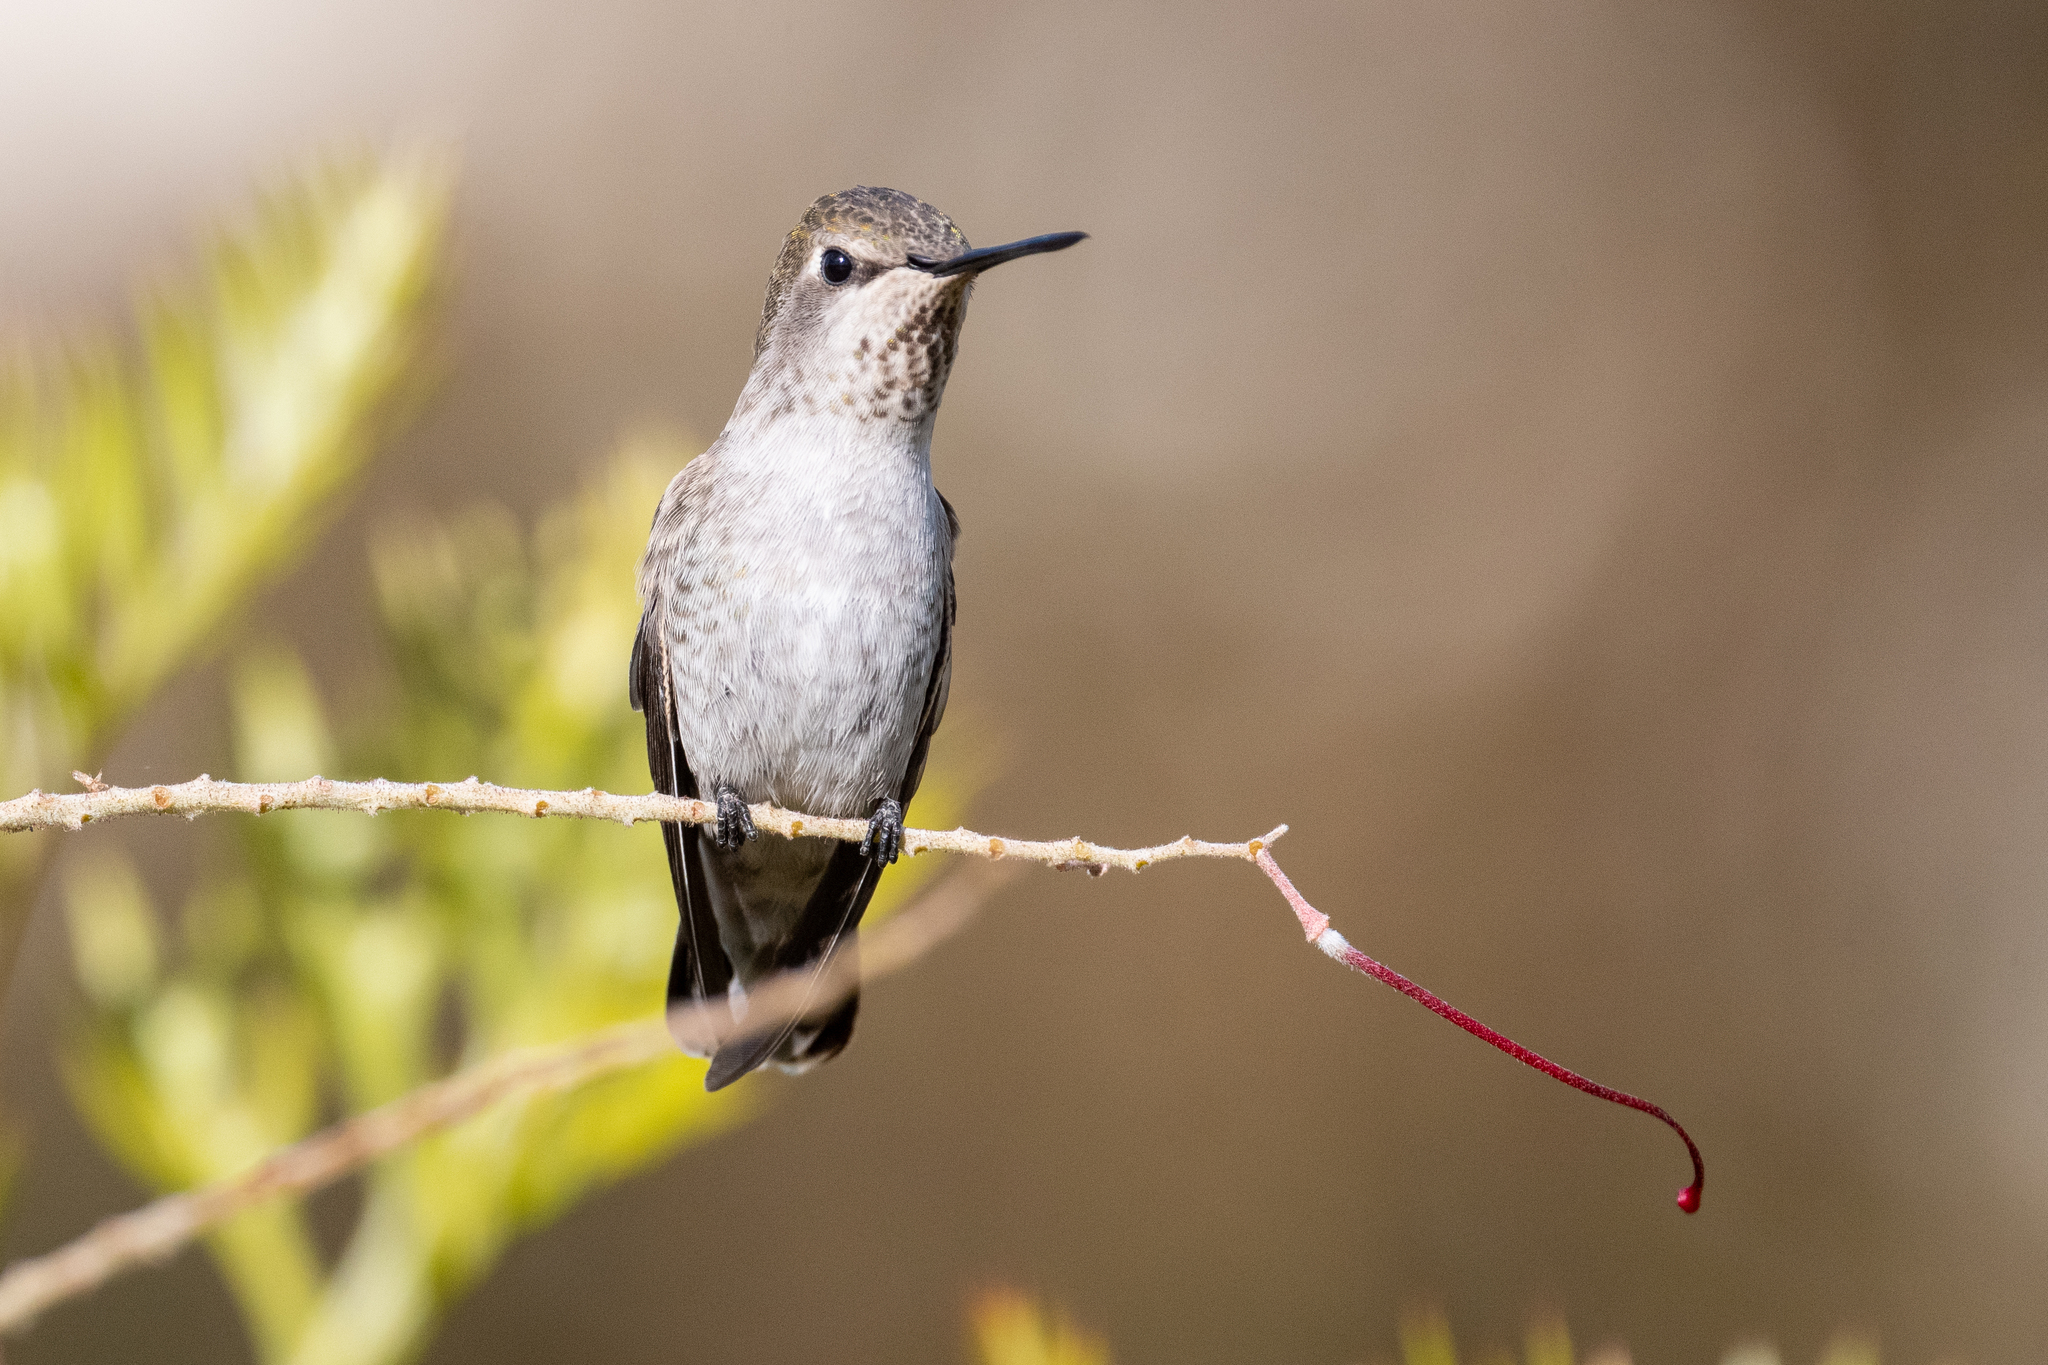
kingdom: Animalia
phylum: Chordata
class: Aves
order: Apodiformes
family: Trochilidae
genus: Calypte
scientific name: Calypte anna
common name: Anna's hummingbird
